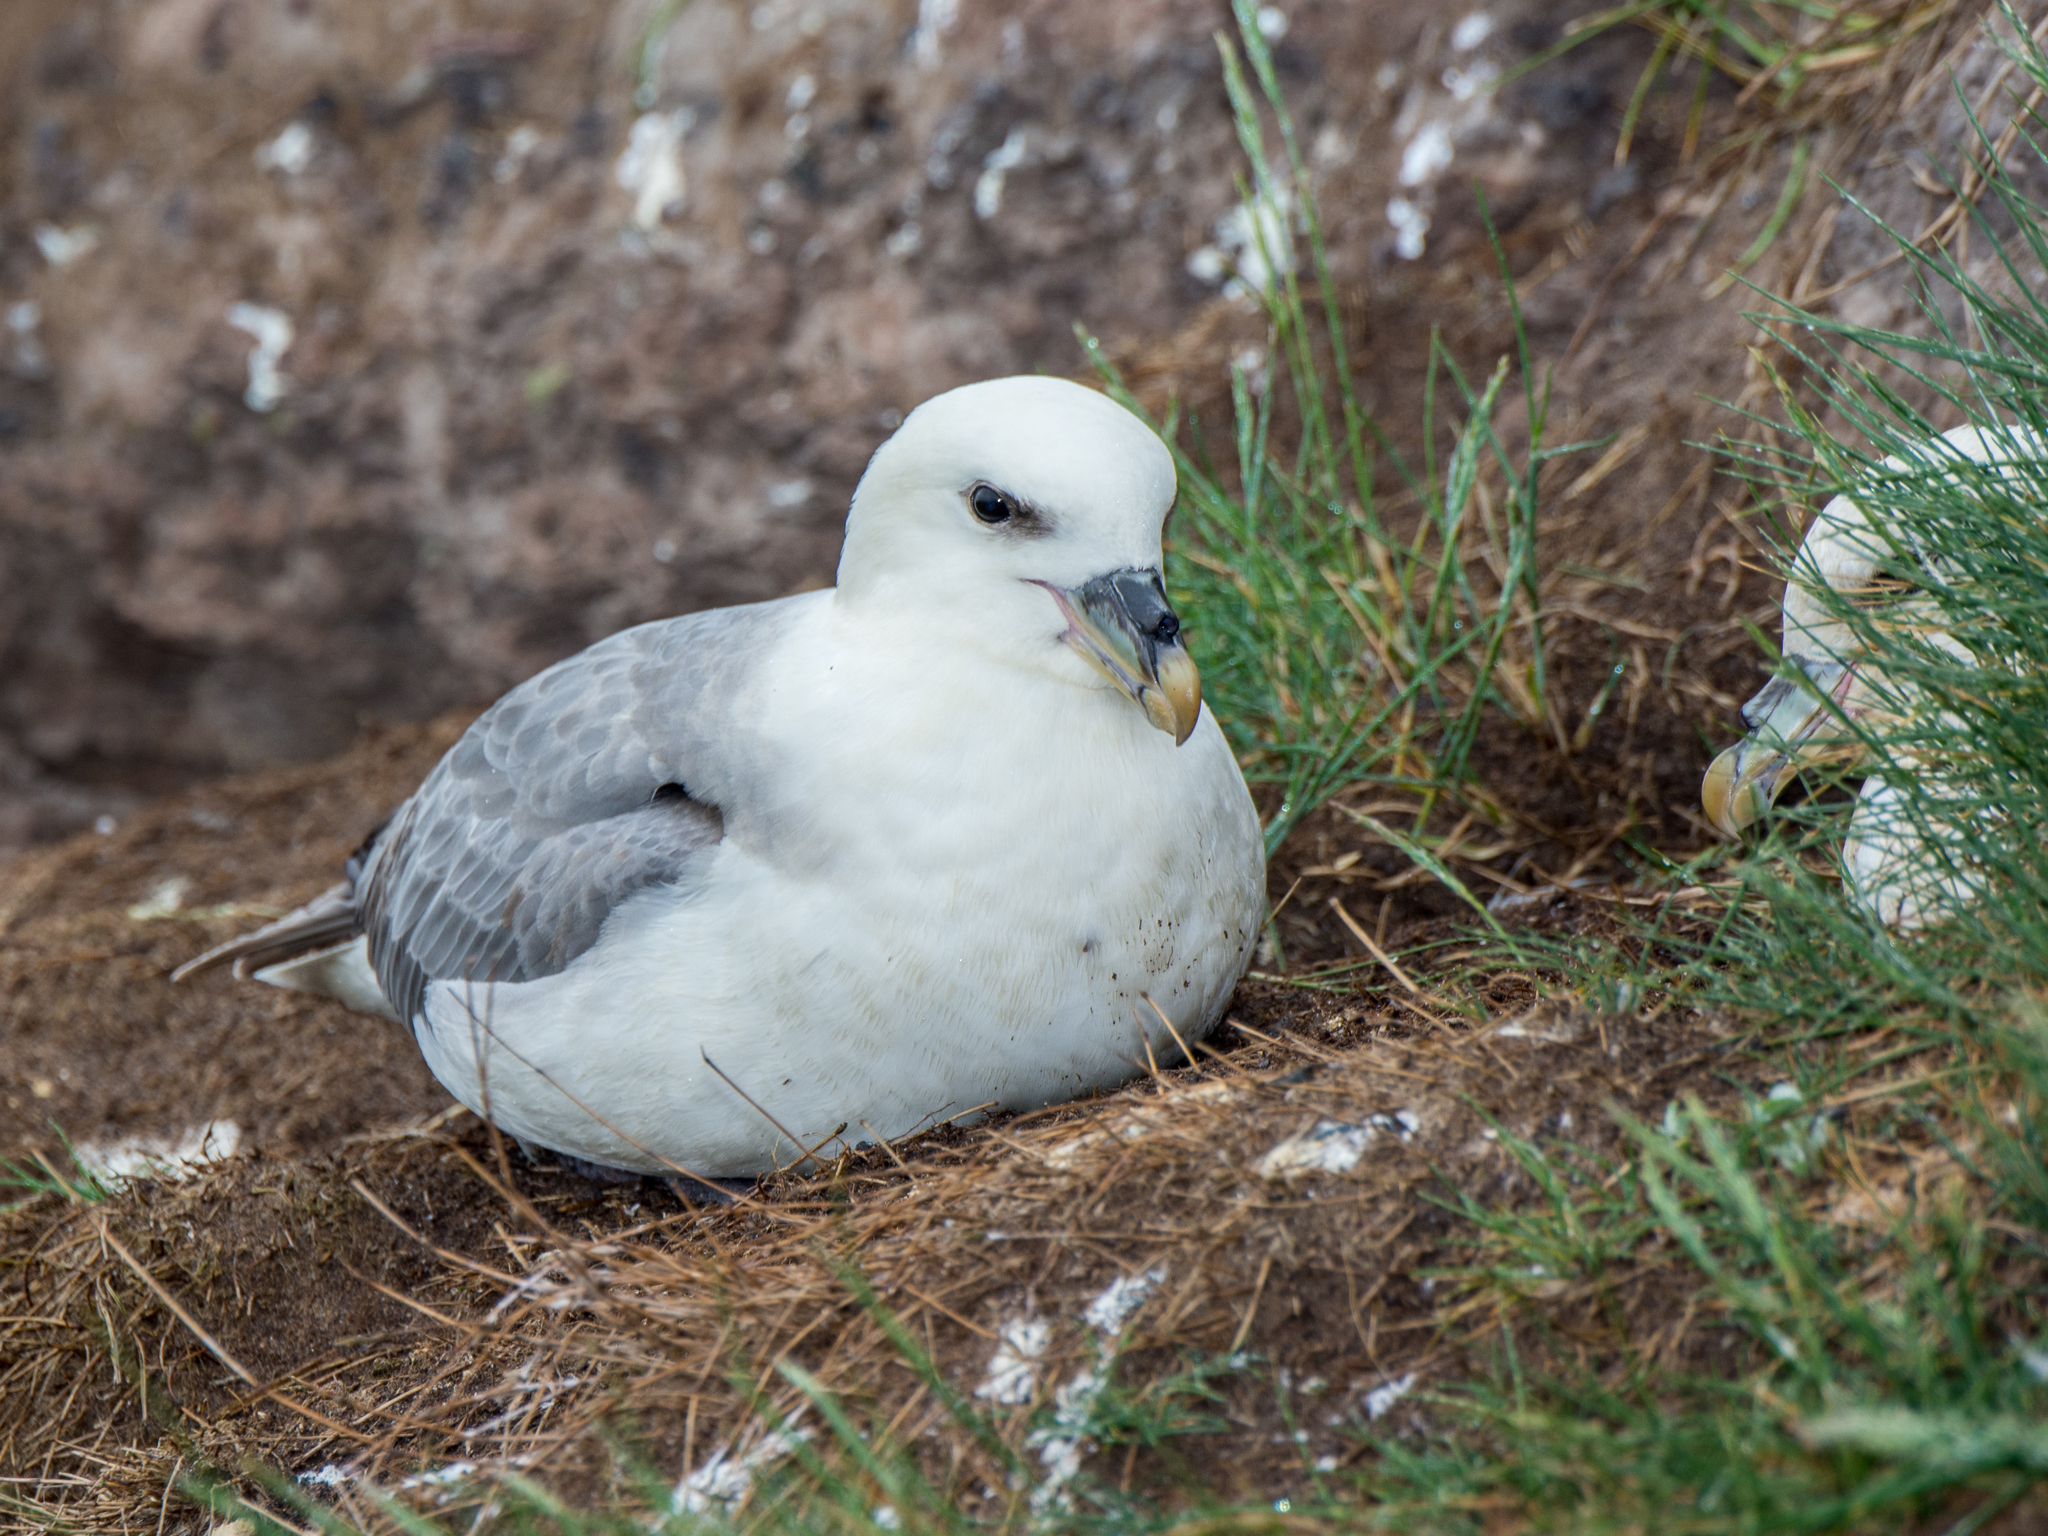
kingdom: Animalia
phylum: Chordata
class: Aves
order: Procellariiformes
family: Procellariidae
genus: Fulmarus
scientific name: Fulmarus glacialis
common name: Northern fulmar
